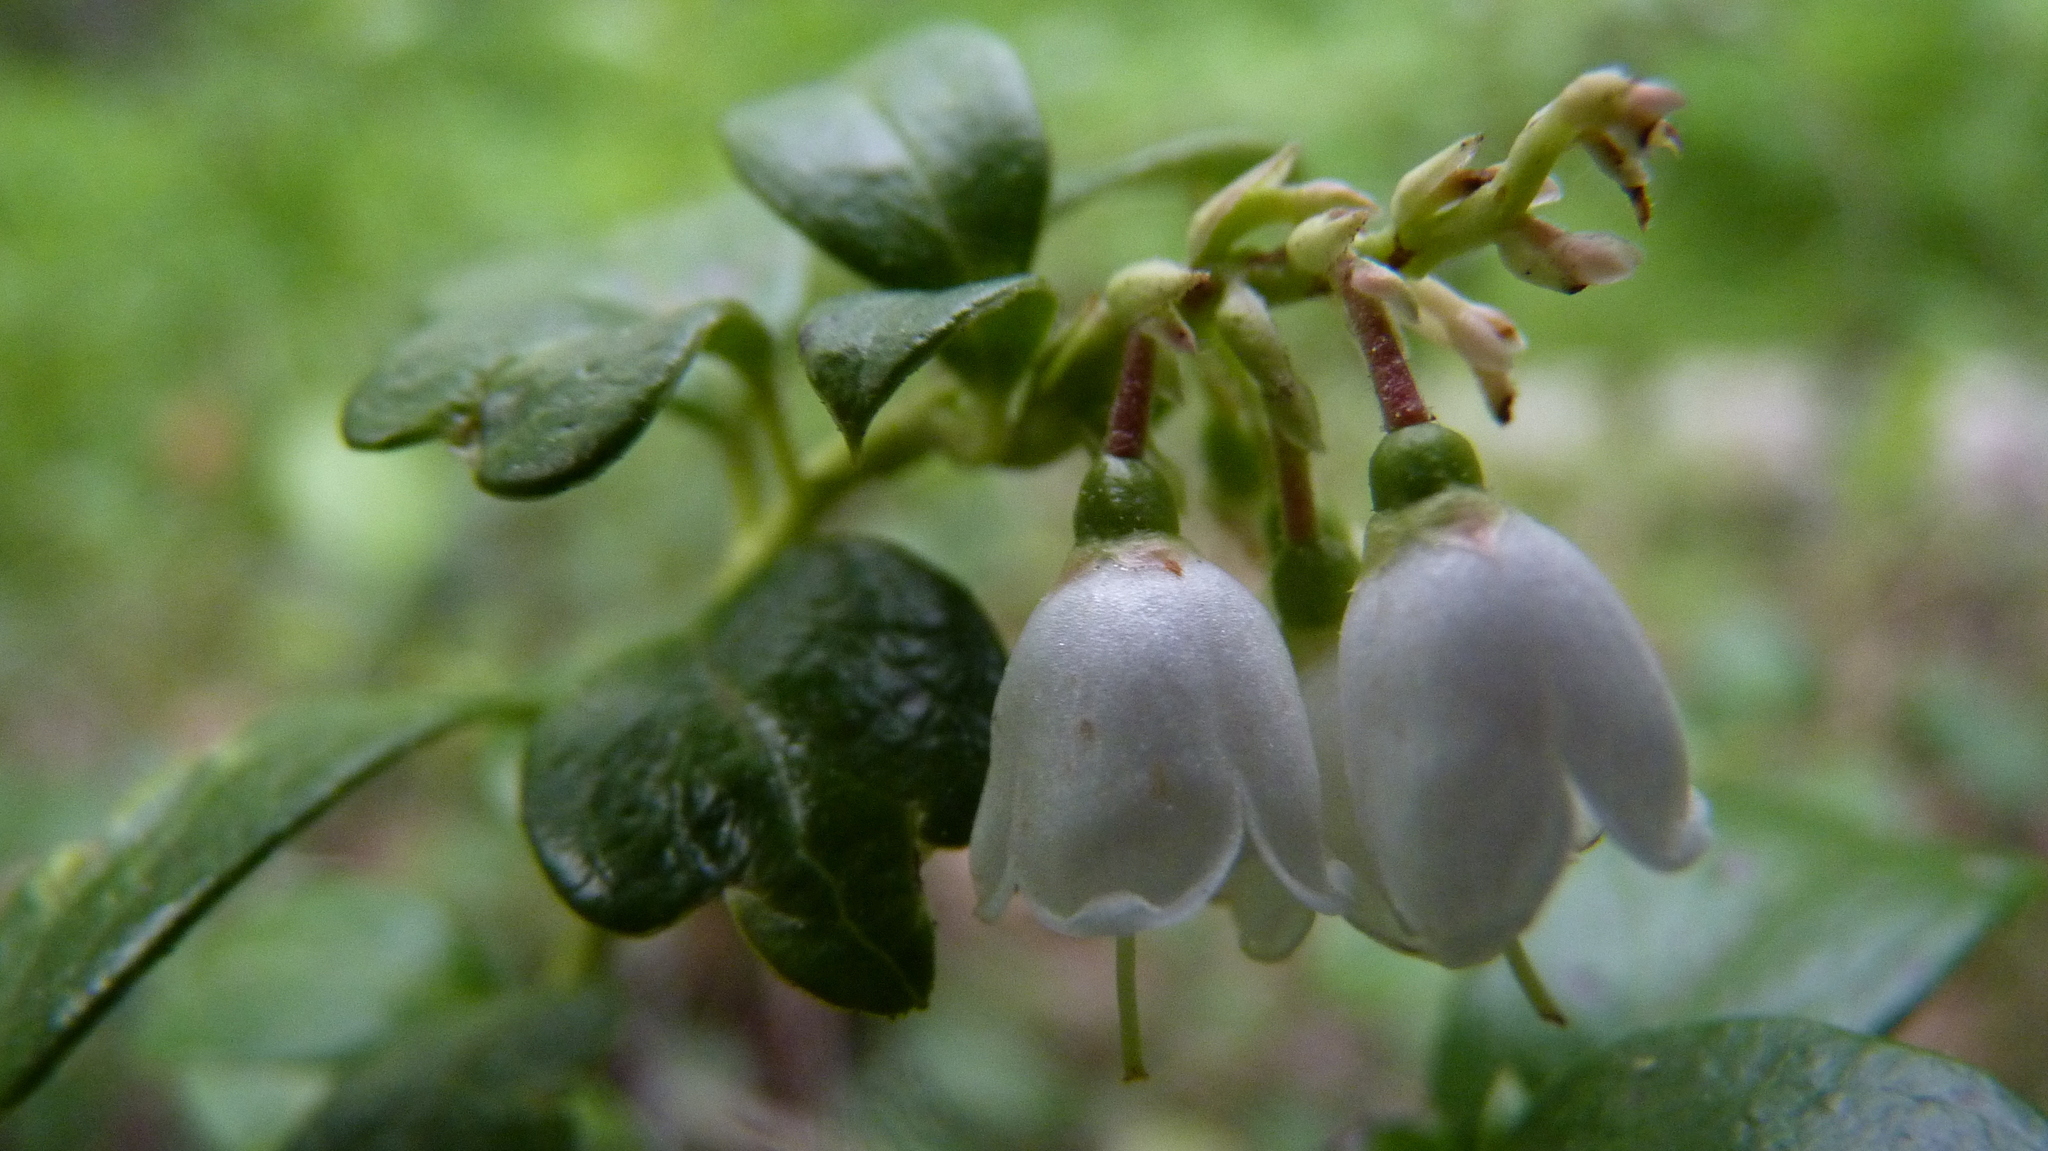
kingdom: Plantae
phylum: Tracheophyta
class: Magnoliopsida
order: Ericales
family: Ericaceae
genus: Vaccinium
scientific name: Vaccinium vitis-idaea
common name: Cowberry
